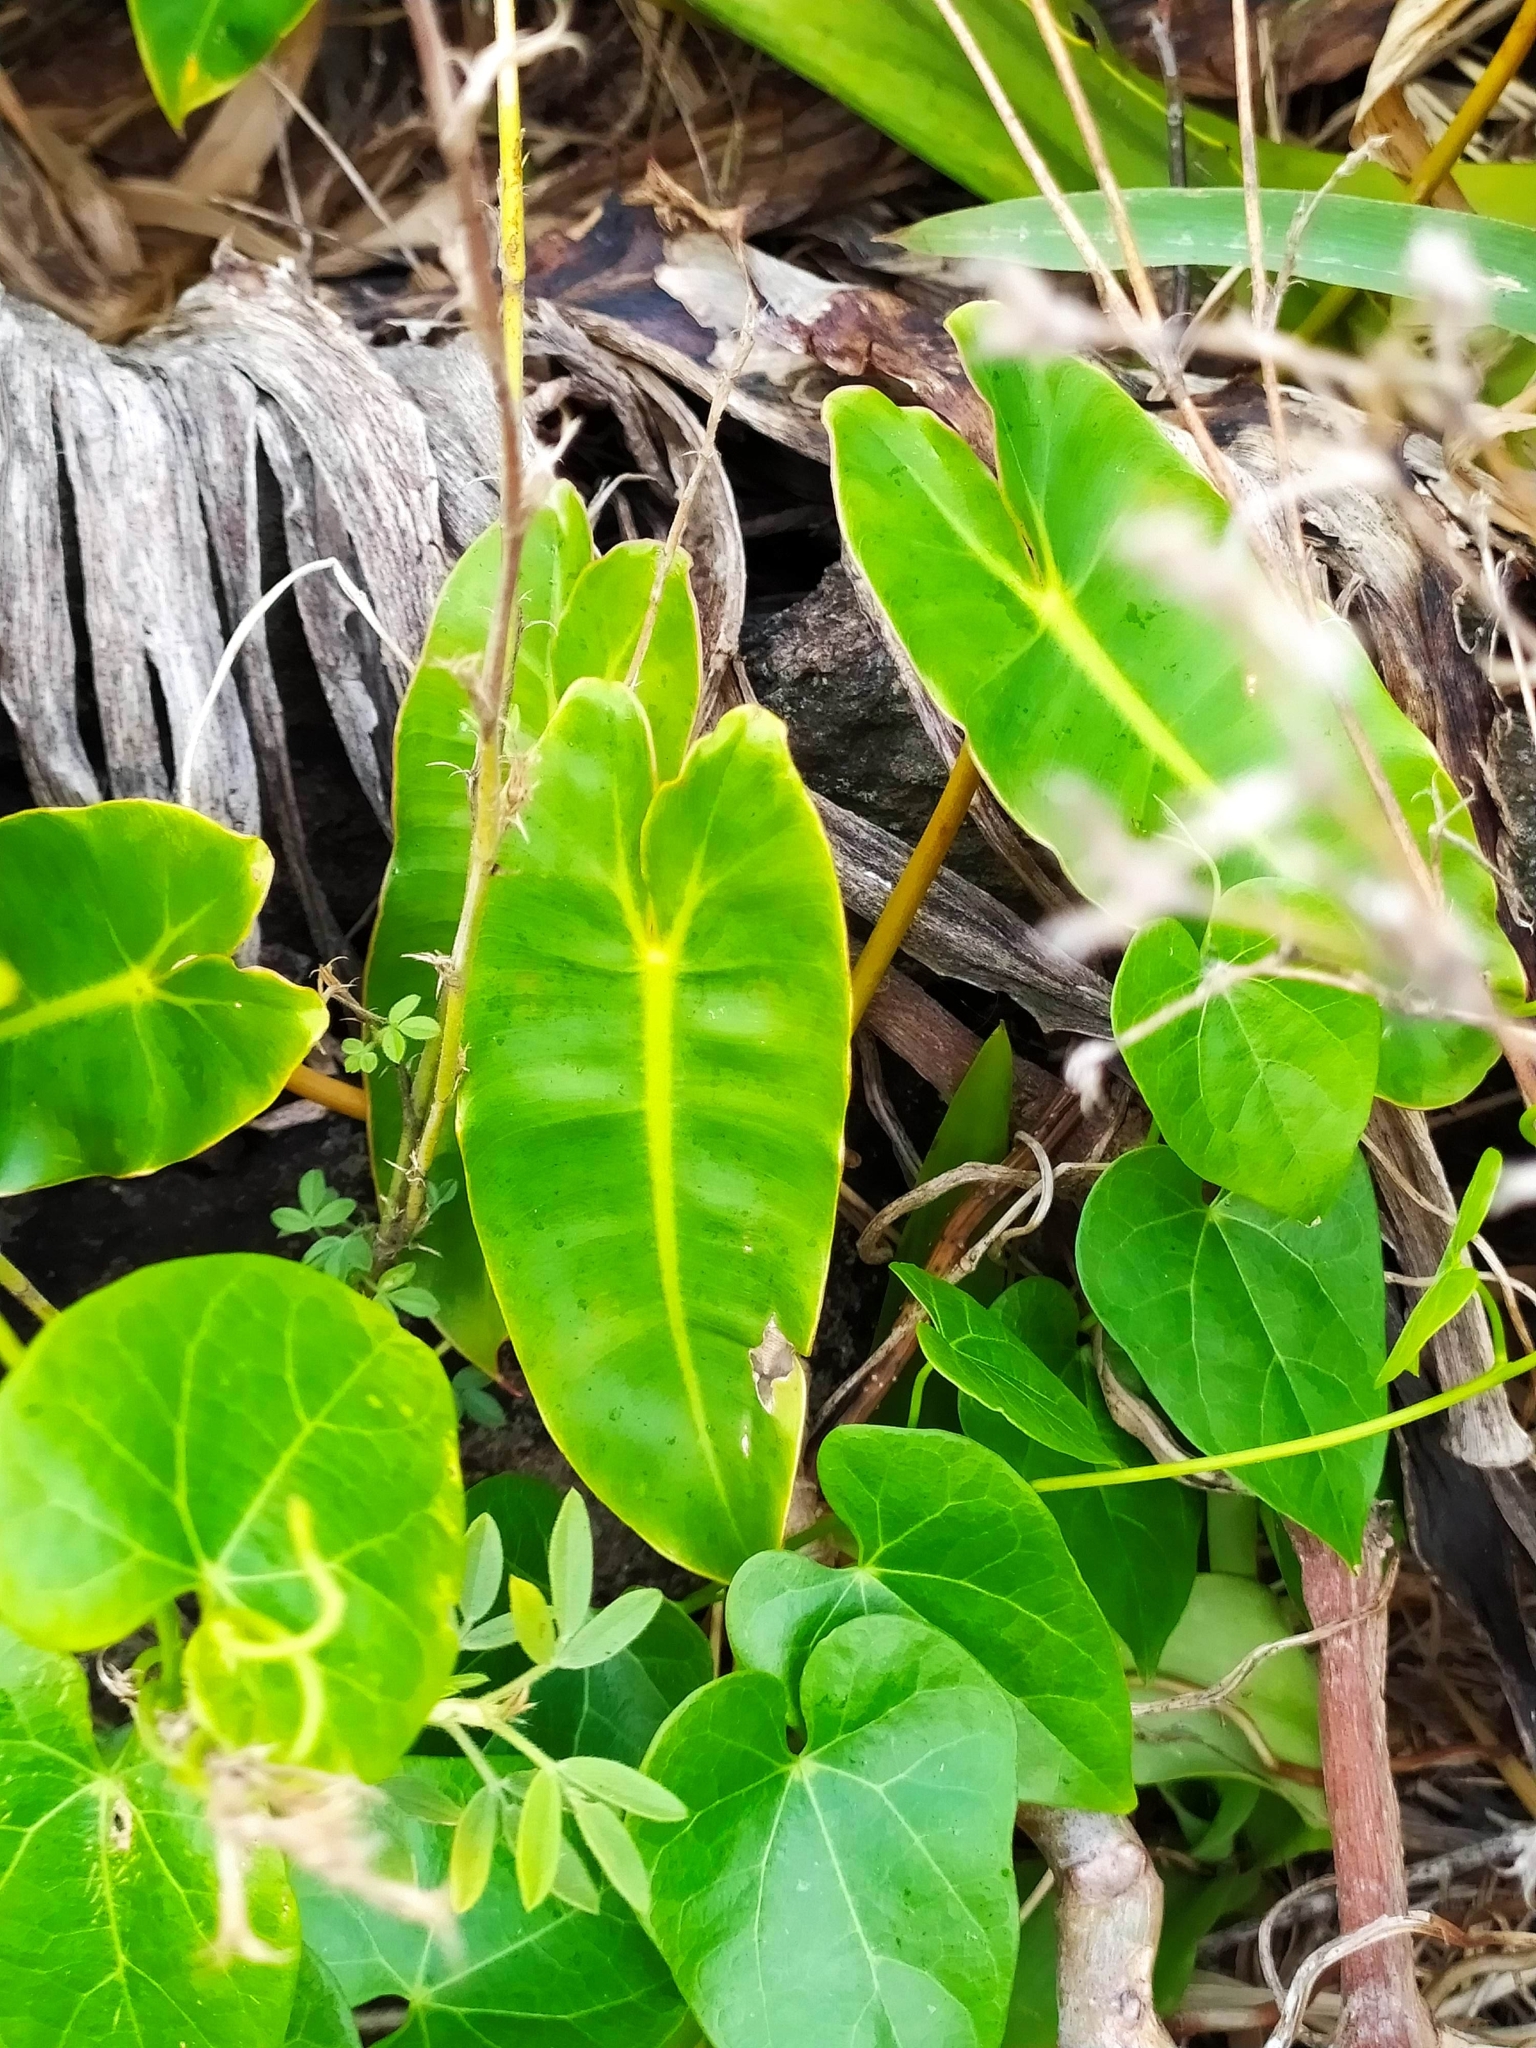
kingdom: Plantae
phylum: Tracheophyta
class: Liliopsida
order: Alismatales
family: Araceae
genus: Philodendron
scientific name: Philodendron quinquenervium
